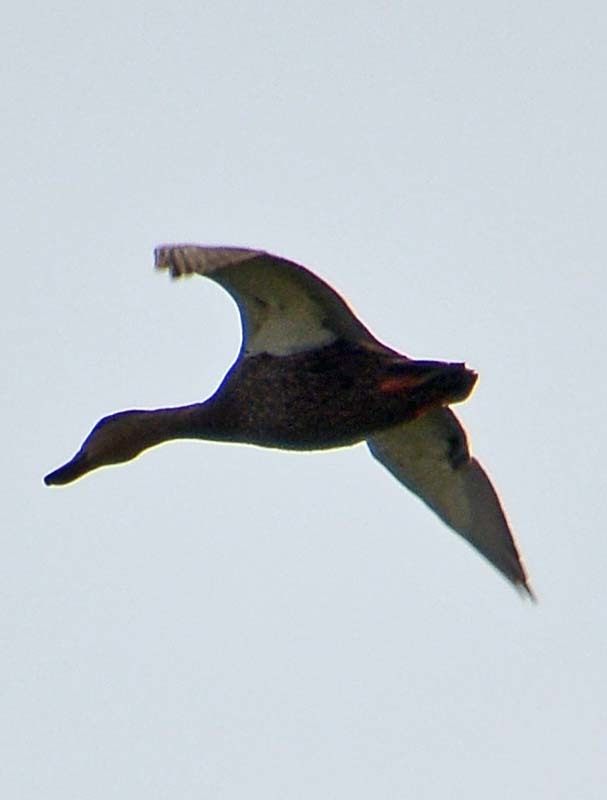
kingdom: Animalia
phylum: Chordata
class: Aves
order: Anseriformes
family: Anatidae
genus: Anas
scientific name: Anas diazi
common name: Mexican duck
